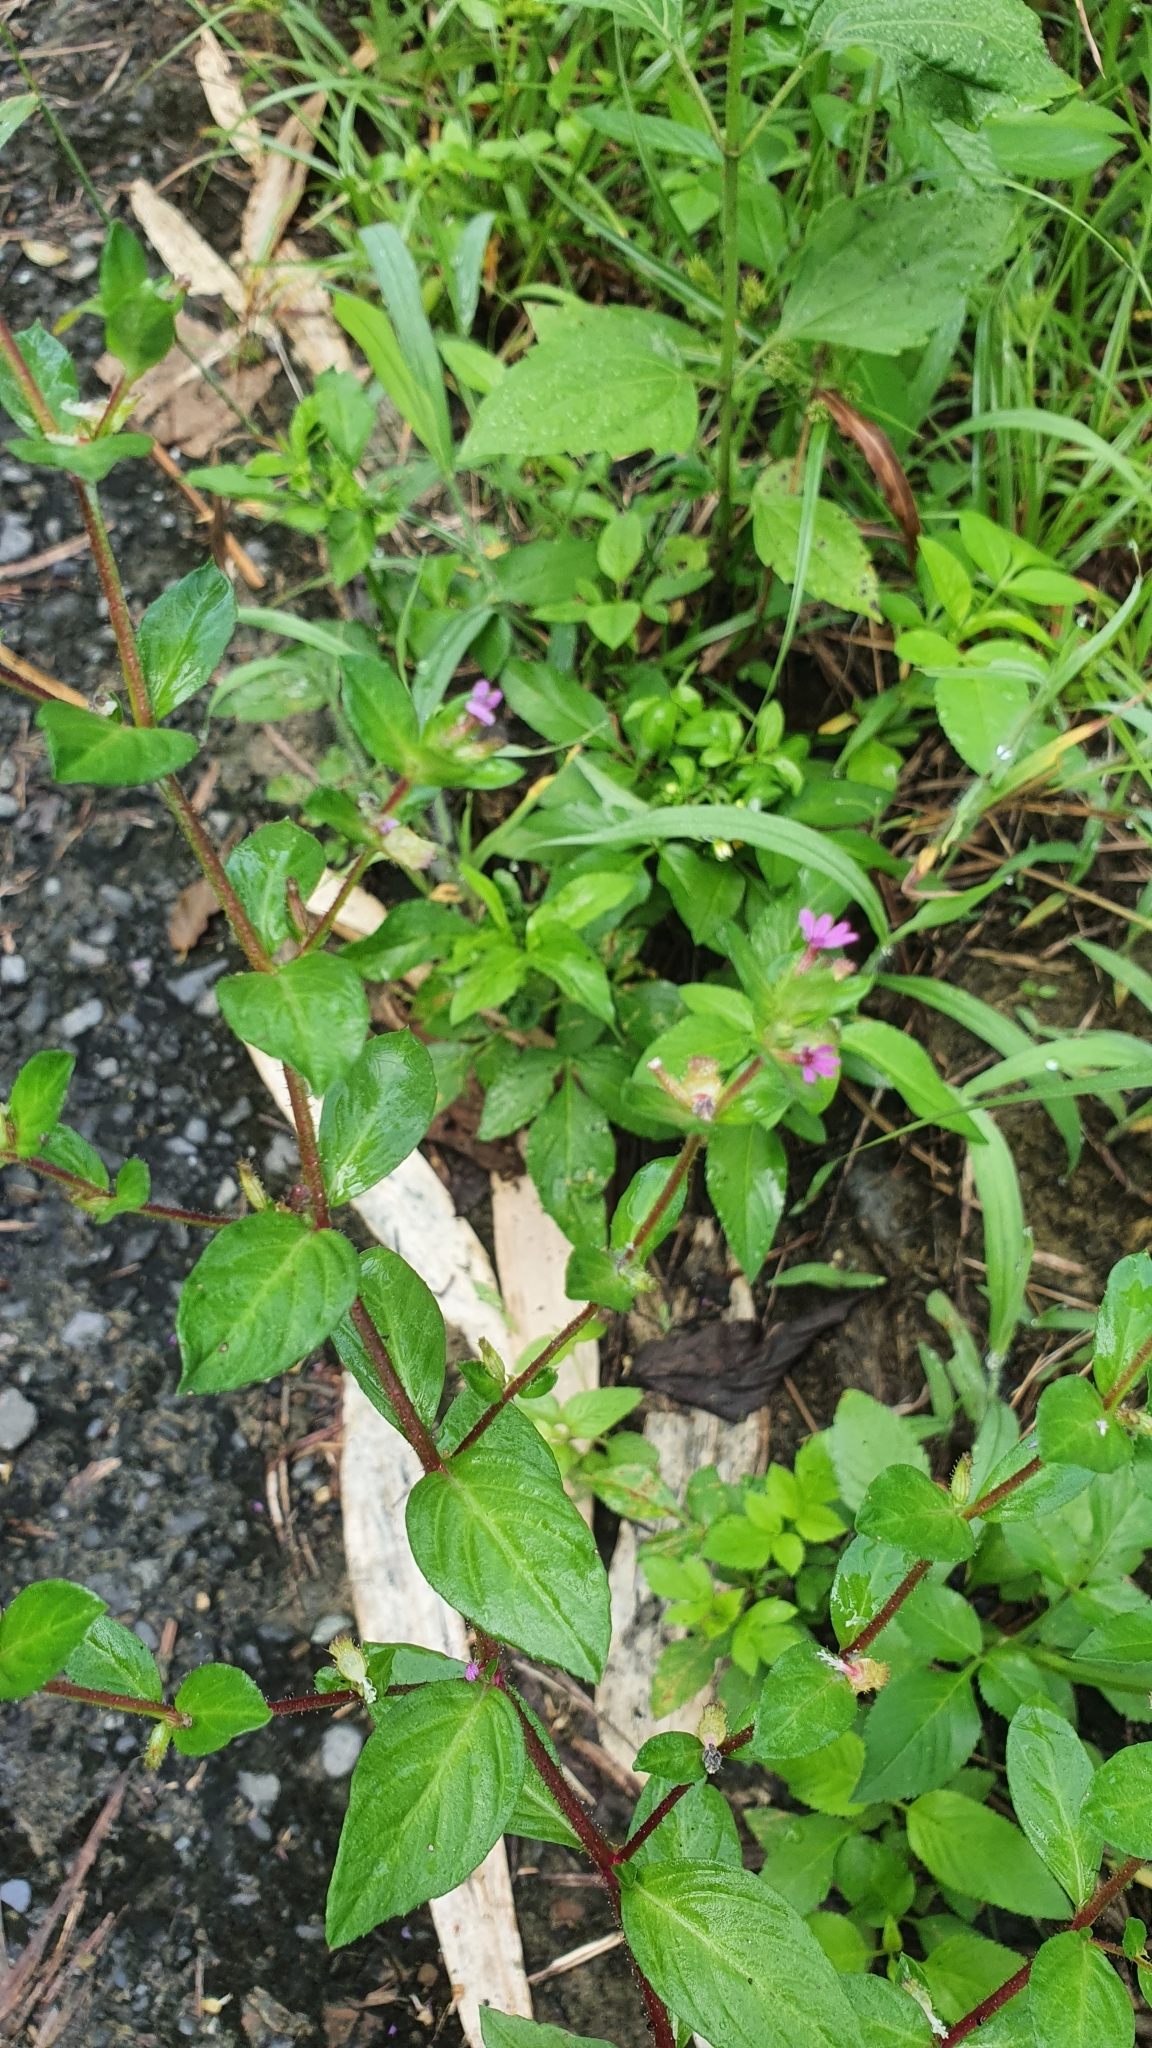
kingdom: Plantae
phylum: Tracheophyta
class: Magnoliopsida
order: Myrtales
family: Lythraceae
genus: Cuphea
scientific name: Cuphea carthagenensis
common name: Colombian waxweed
